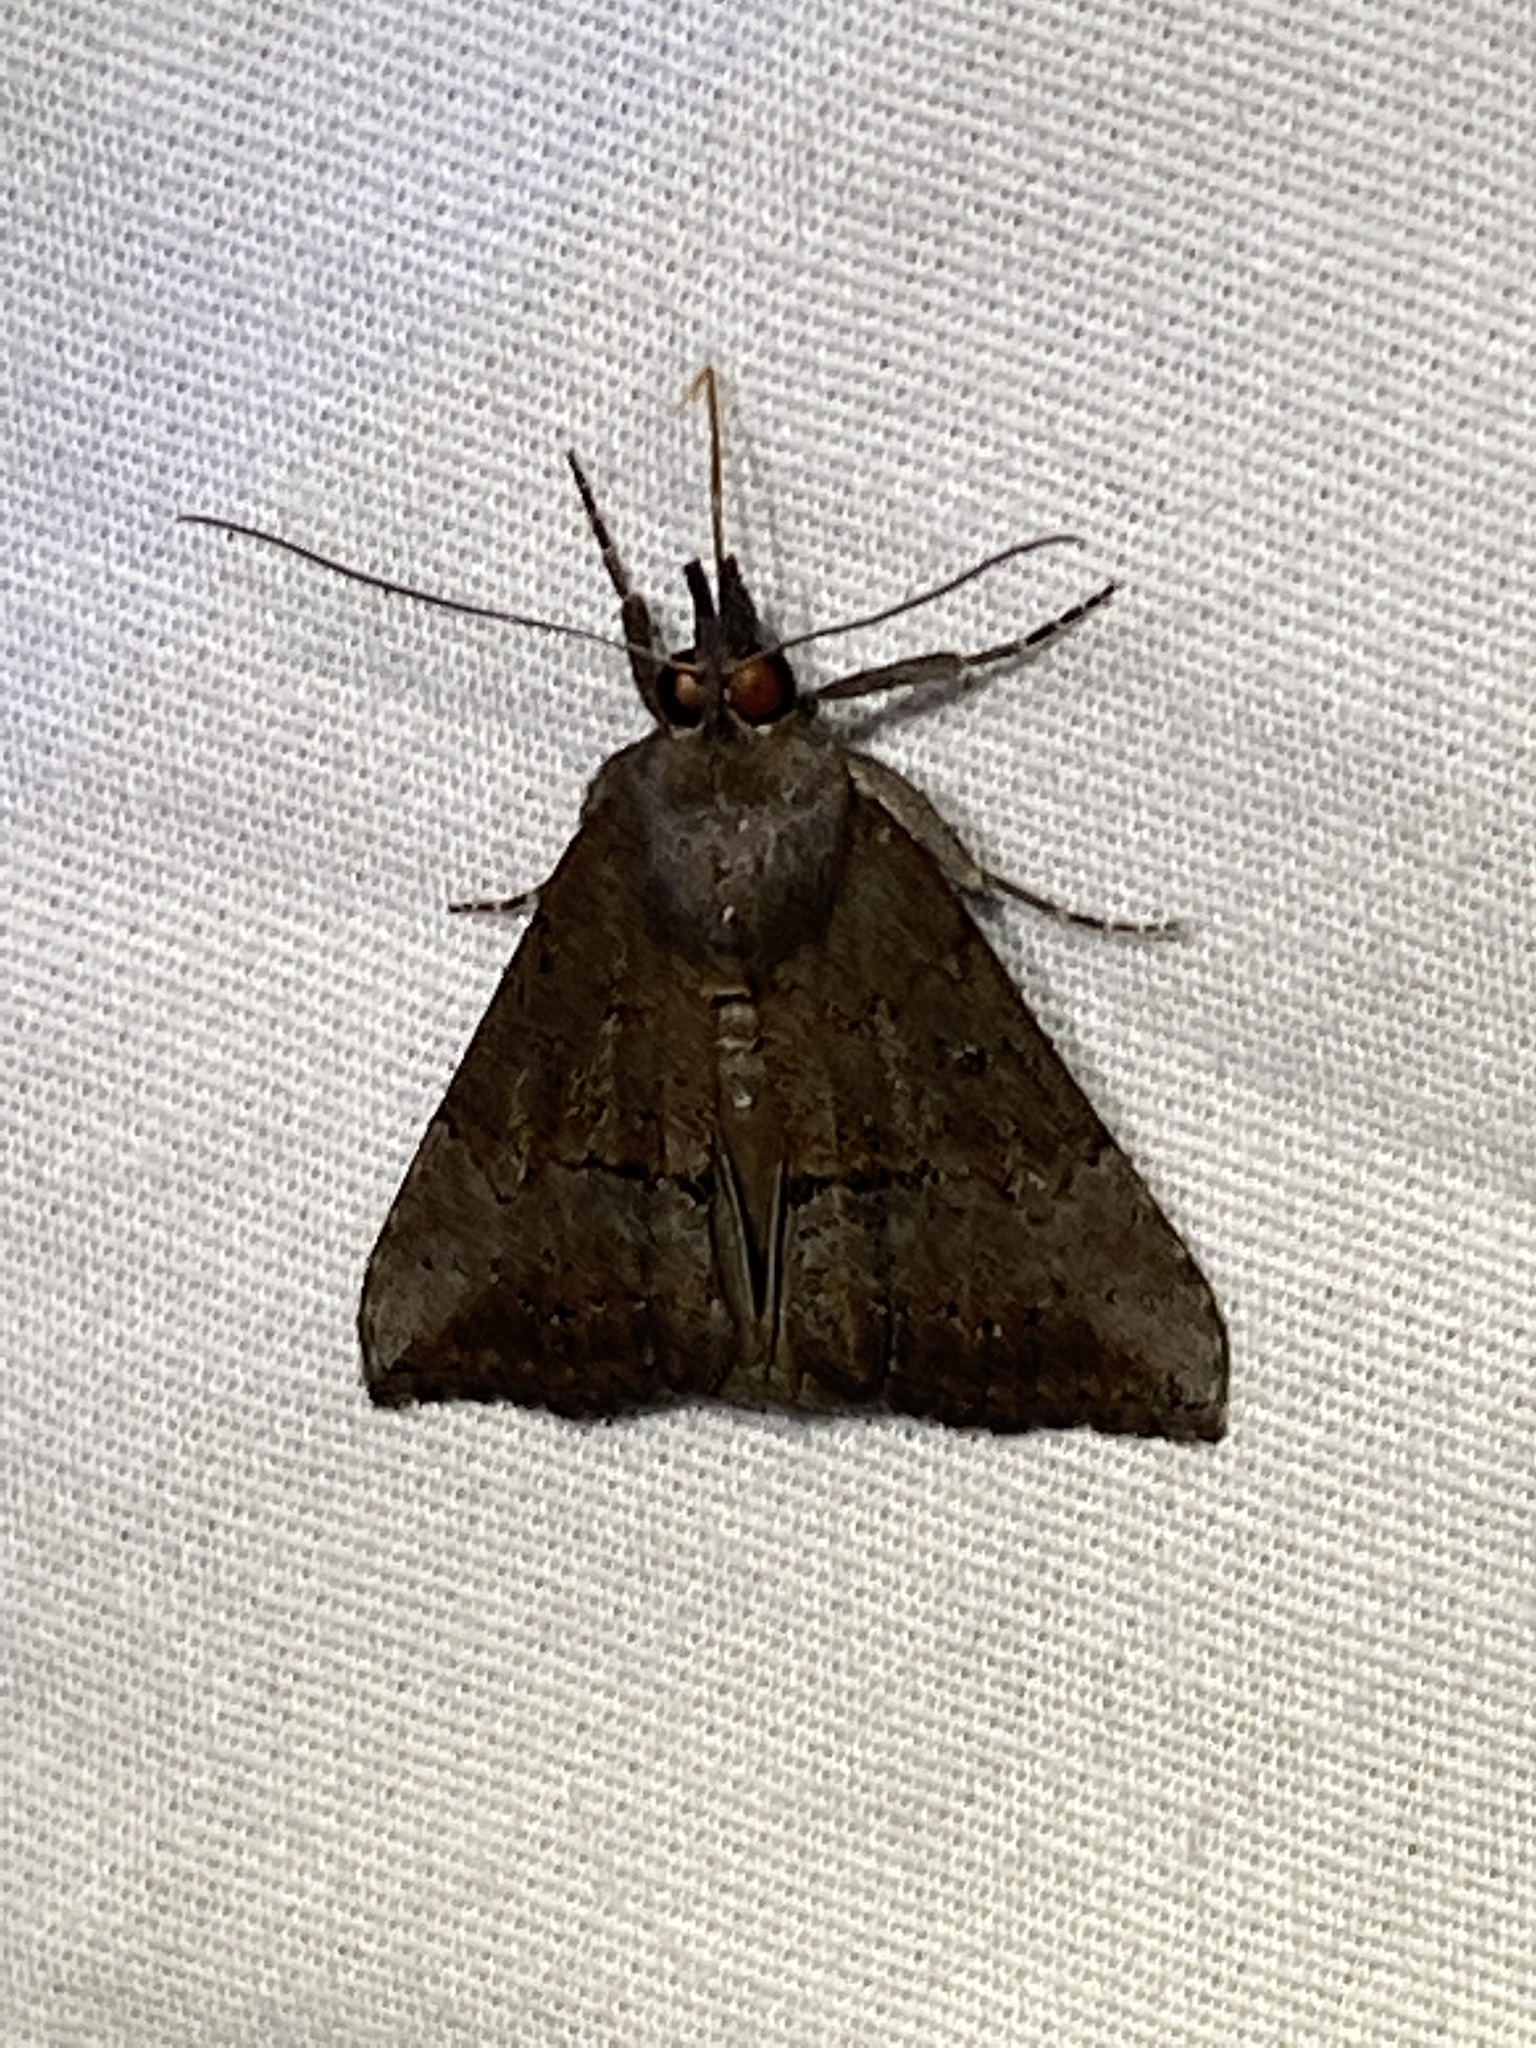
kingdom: Animalia
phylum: Arthropoda
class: Insecta
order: Lepidoptera
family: Erebidae
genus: Hypena
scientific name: Hypena scabra
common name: Green cloverworm
